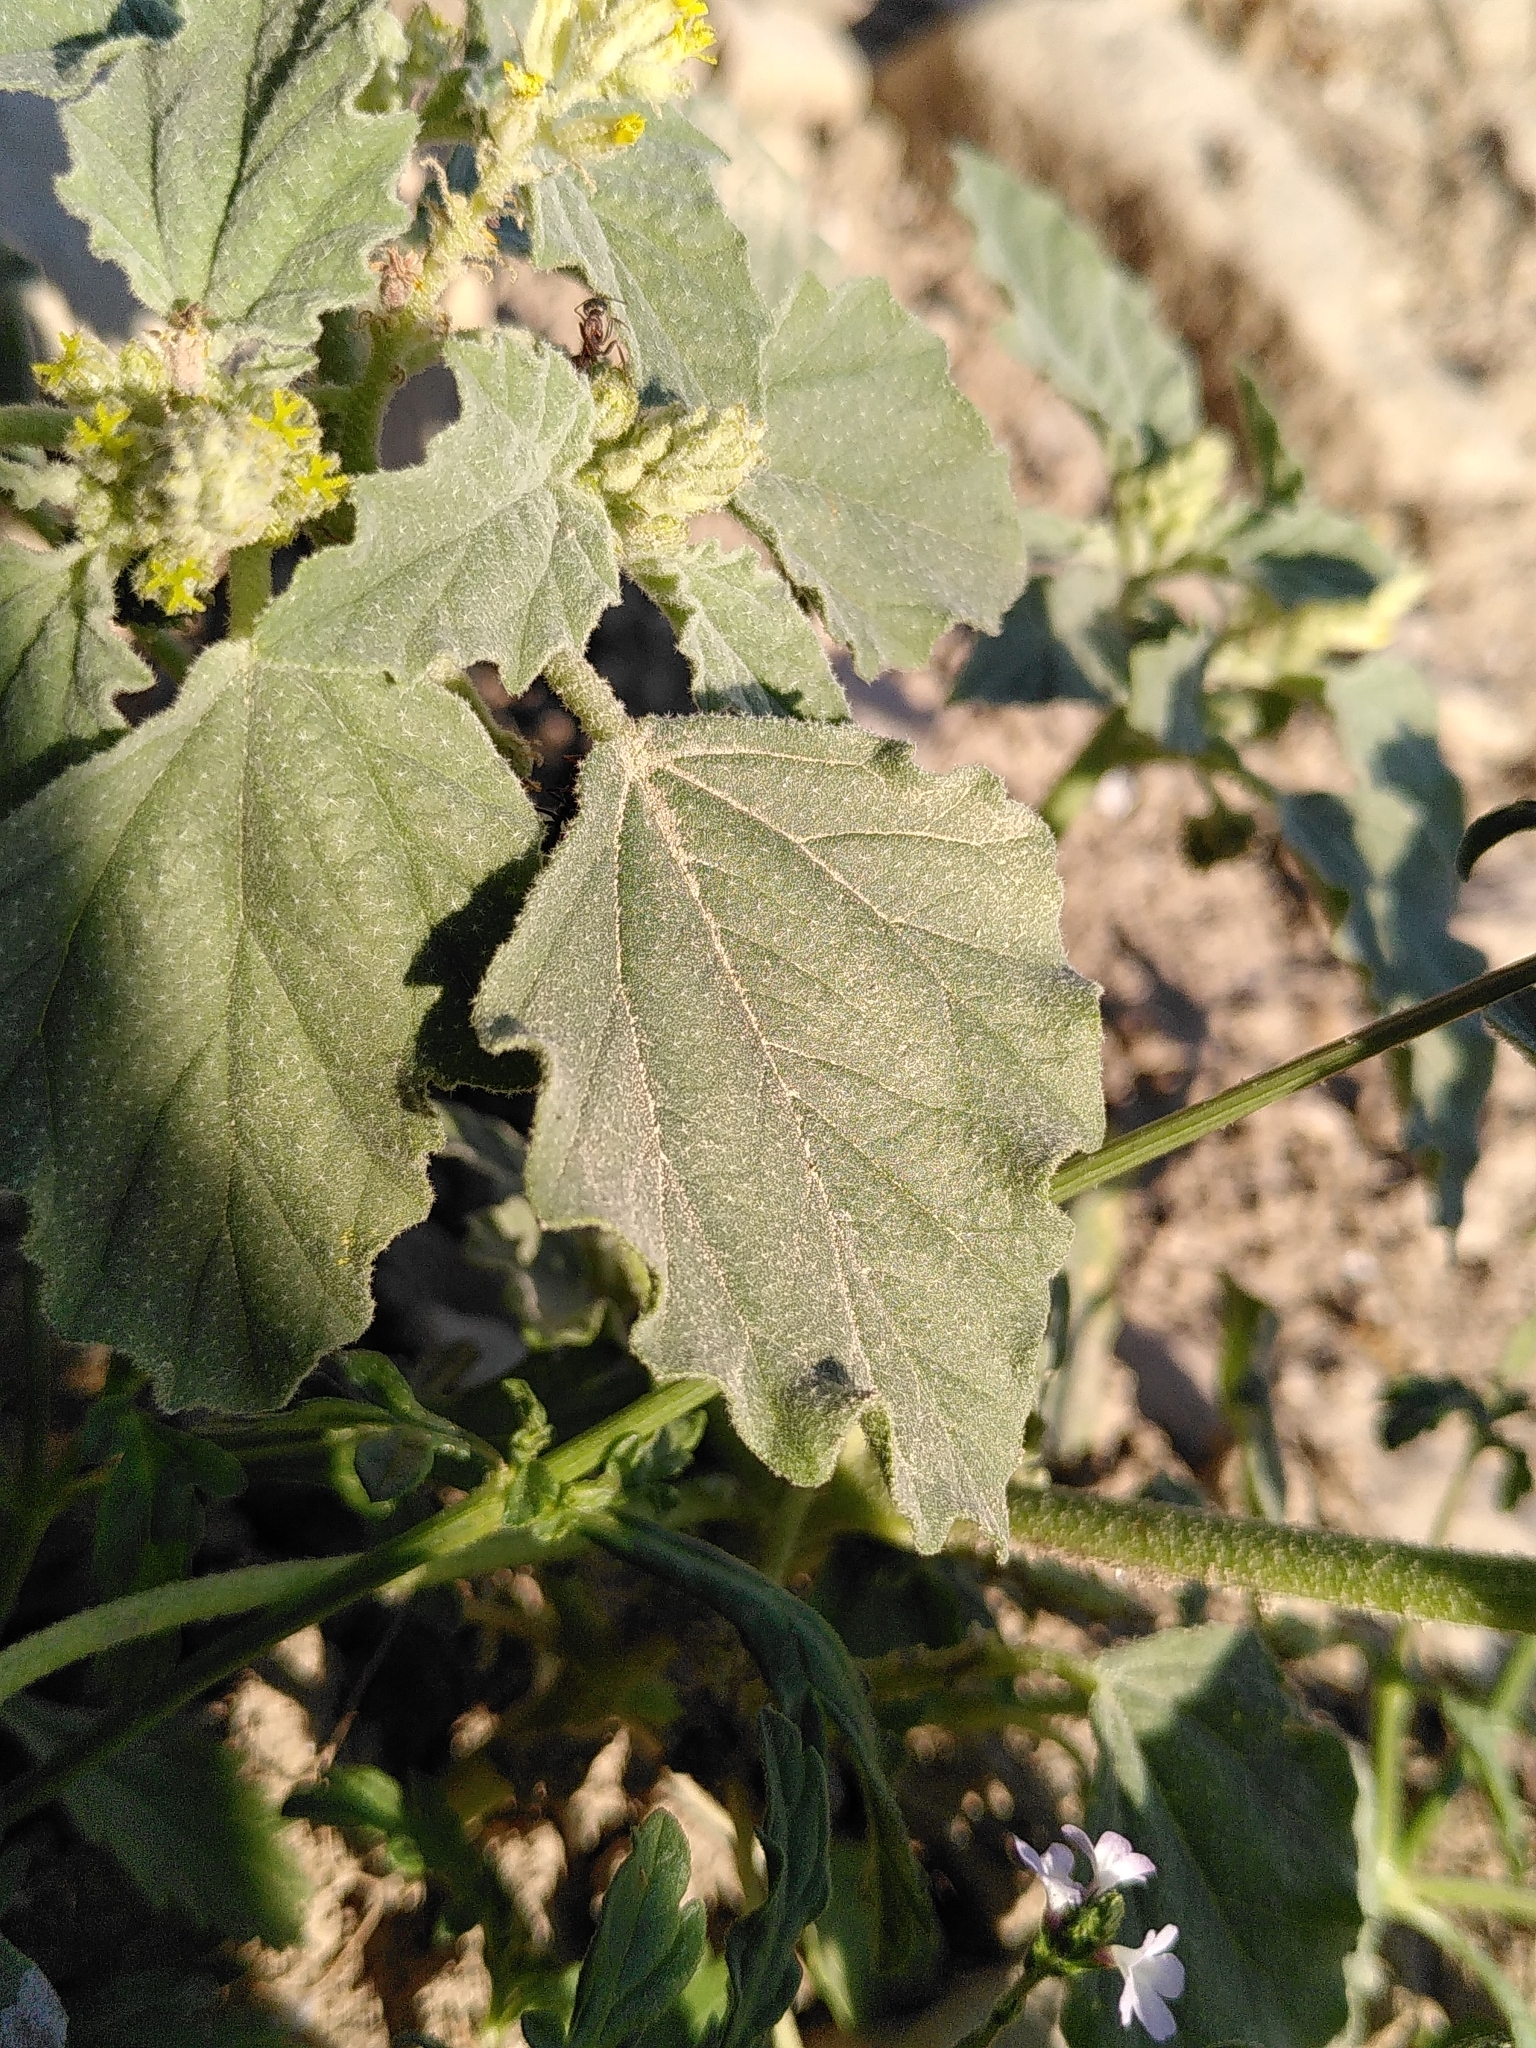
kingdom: Plantae
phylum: Tracheophyta
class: Magnoliopsida
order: Malpighiales
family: Euphorbiaceae
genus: Chrozophora
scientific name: Chrozophora tinctoria
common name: Dyer's litmus
